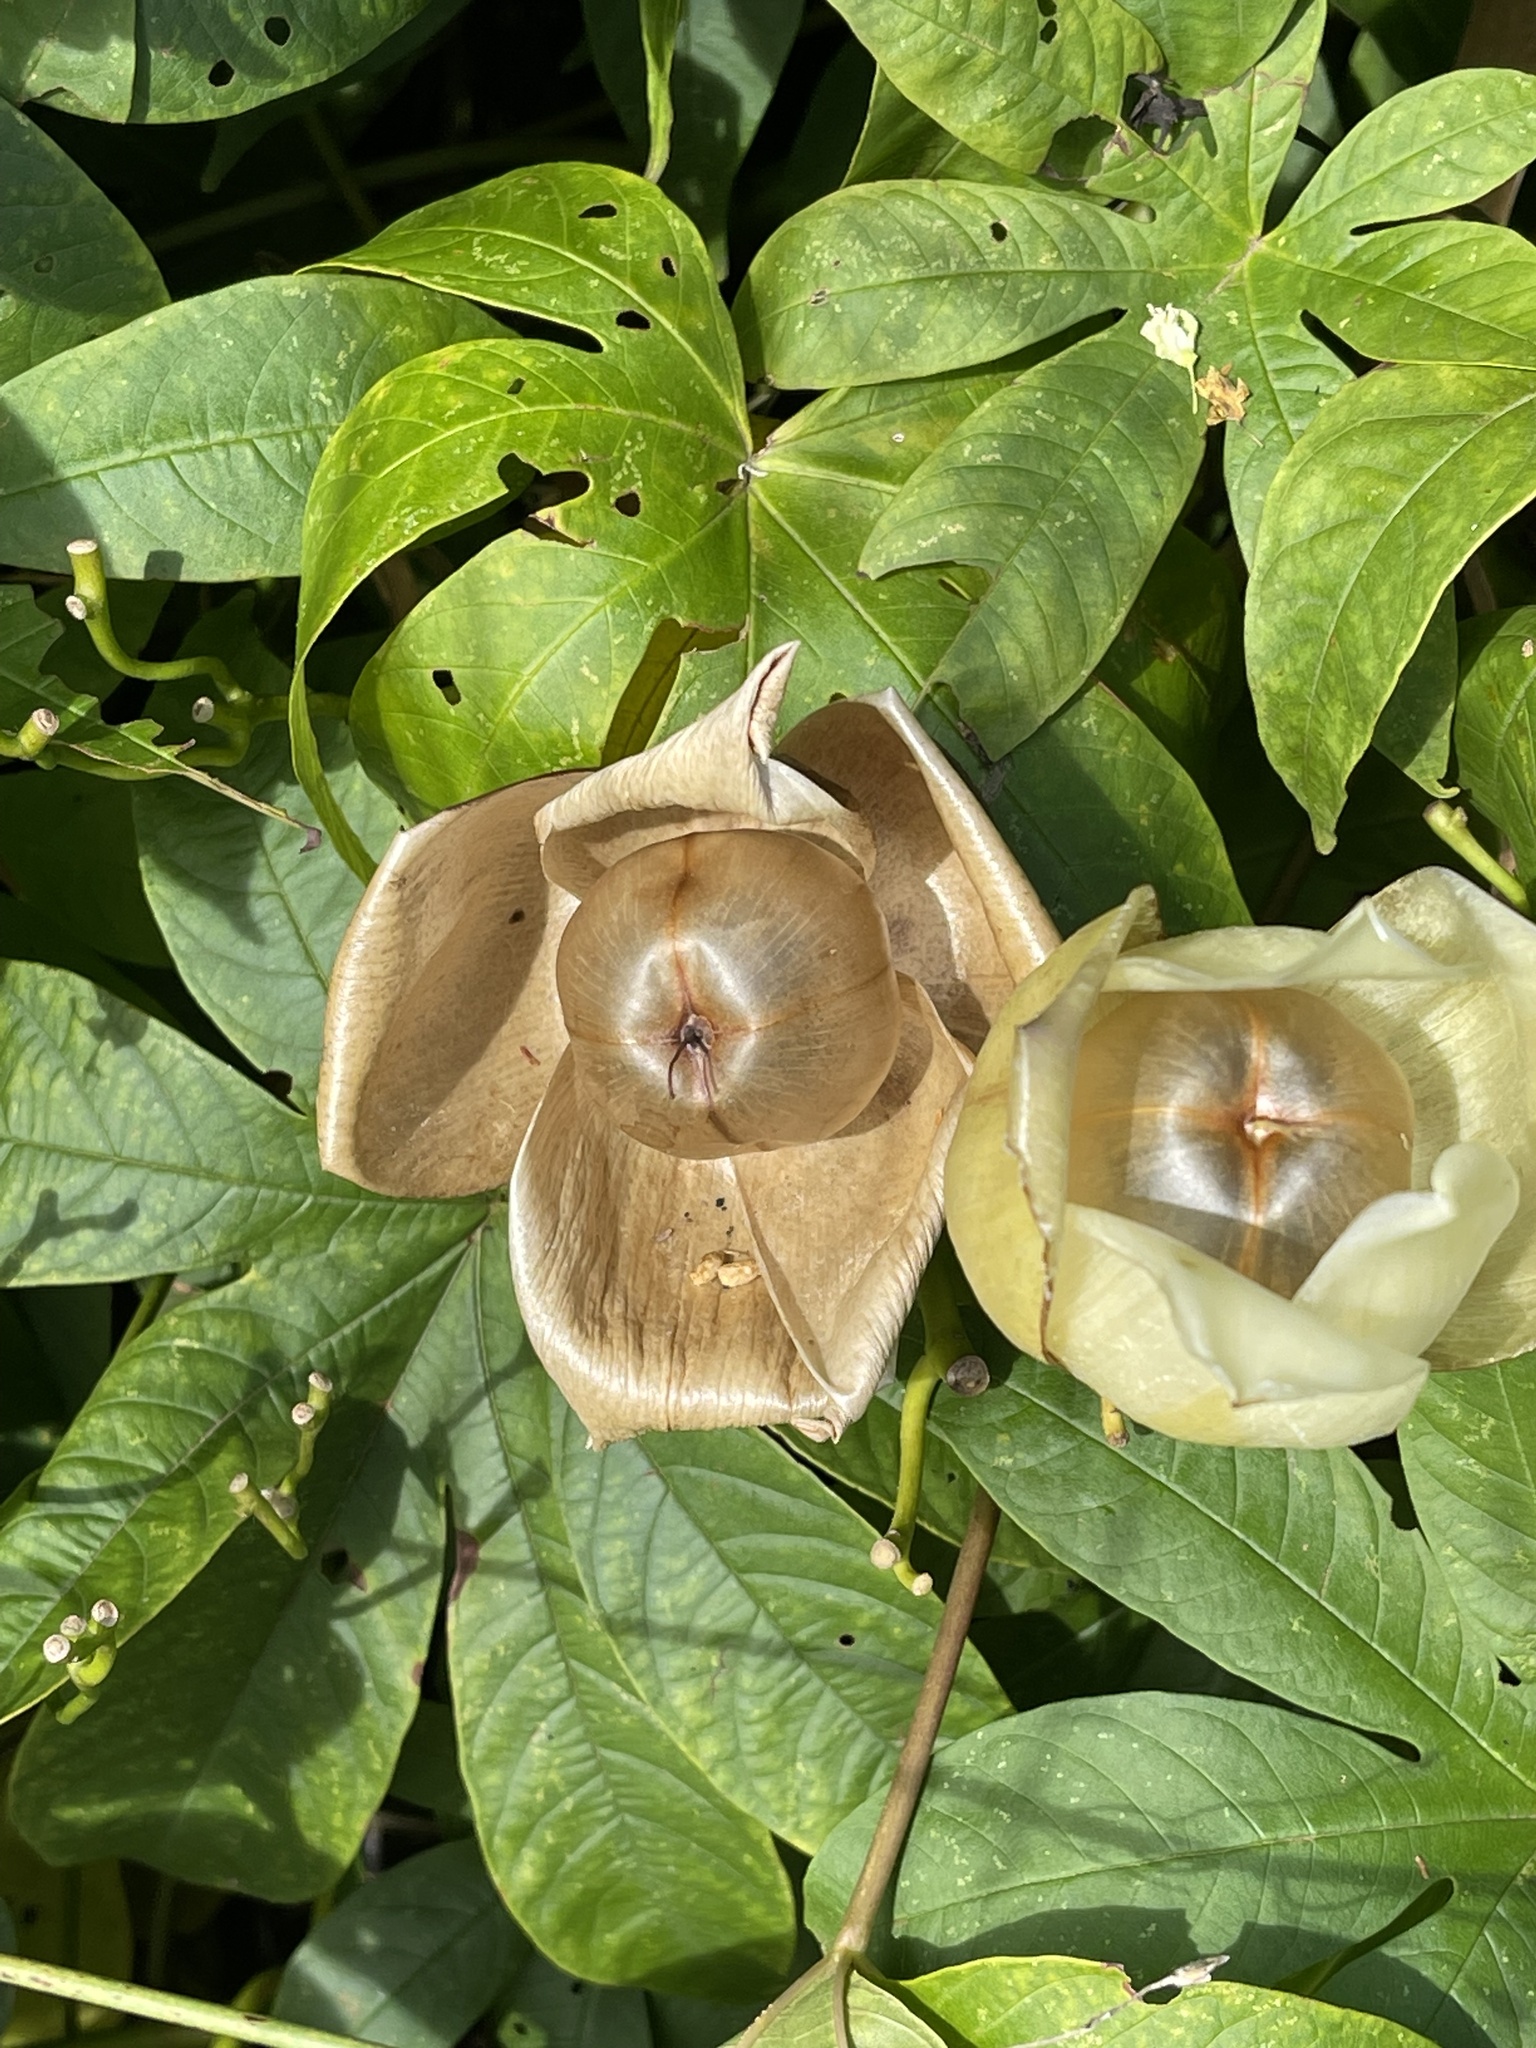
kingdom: Plantae
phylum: Tracheophyta
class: Magnoliopsida
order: Solanales
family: Convolvulaceae
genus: Distimake
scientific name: Distimake tuberosus
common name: Spanish arborvine
